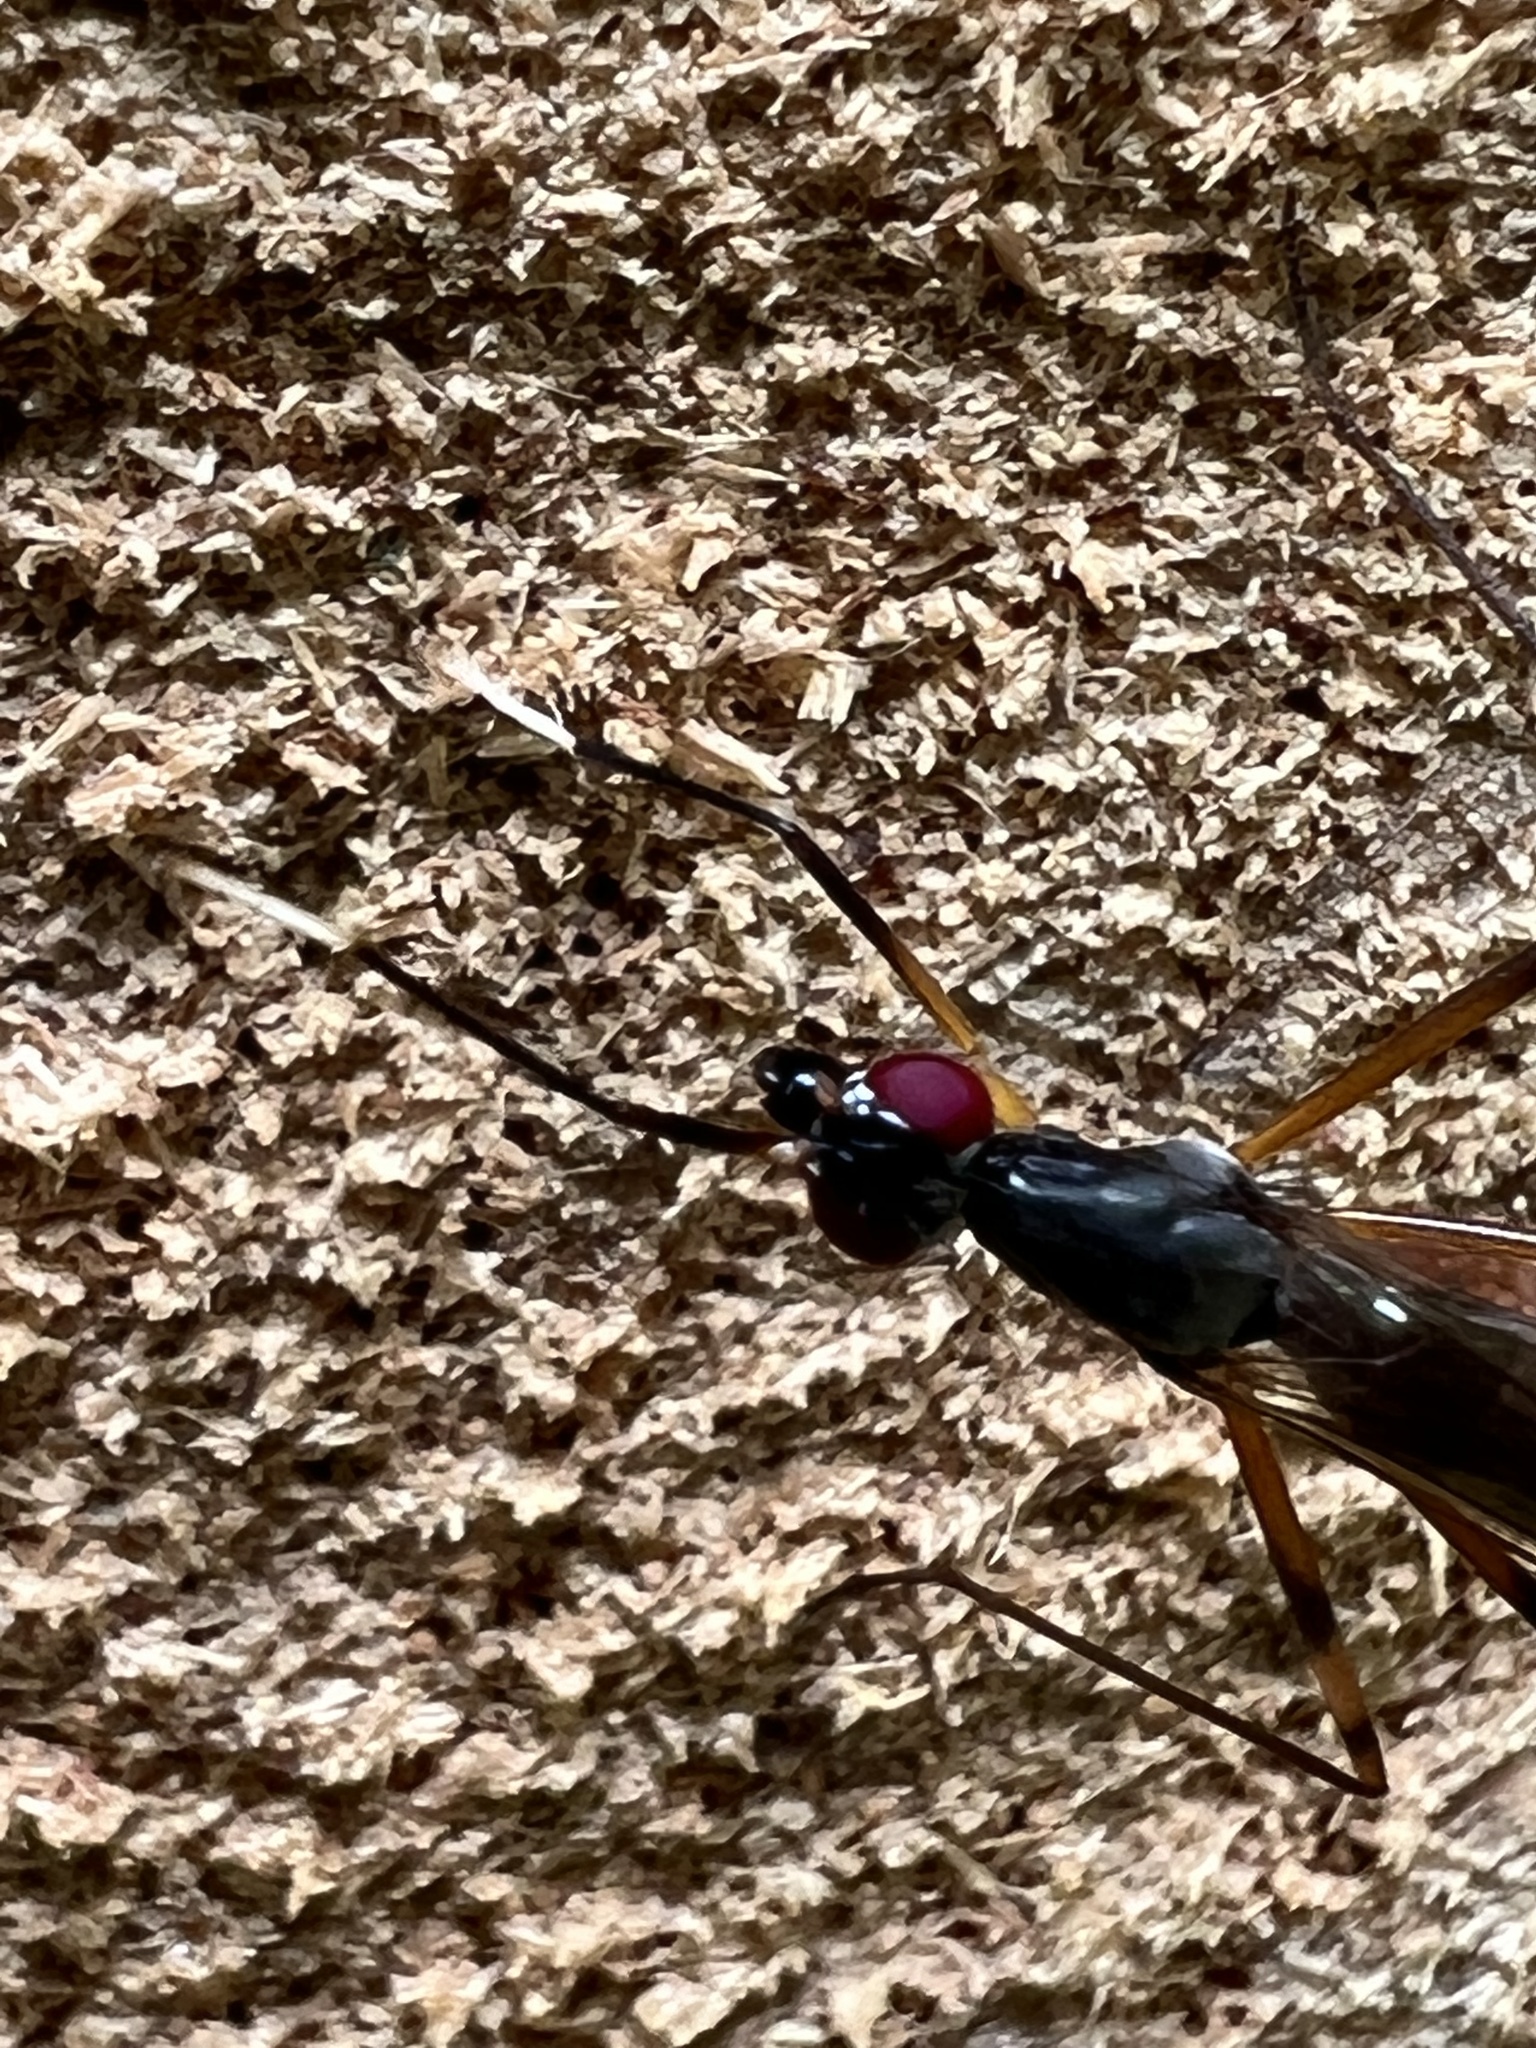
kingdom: Animalia
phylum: Arthropoda
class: Insecta
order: Diptera
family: Micropezidae
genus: Rainieria
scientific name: Rainieria antennaepes
